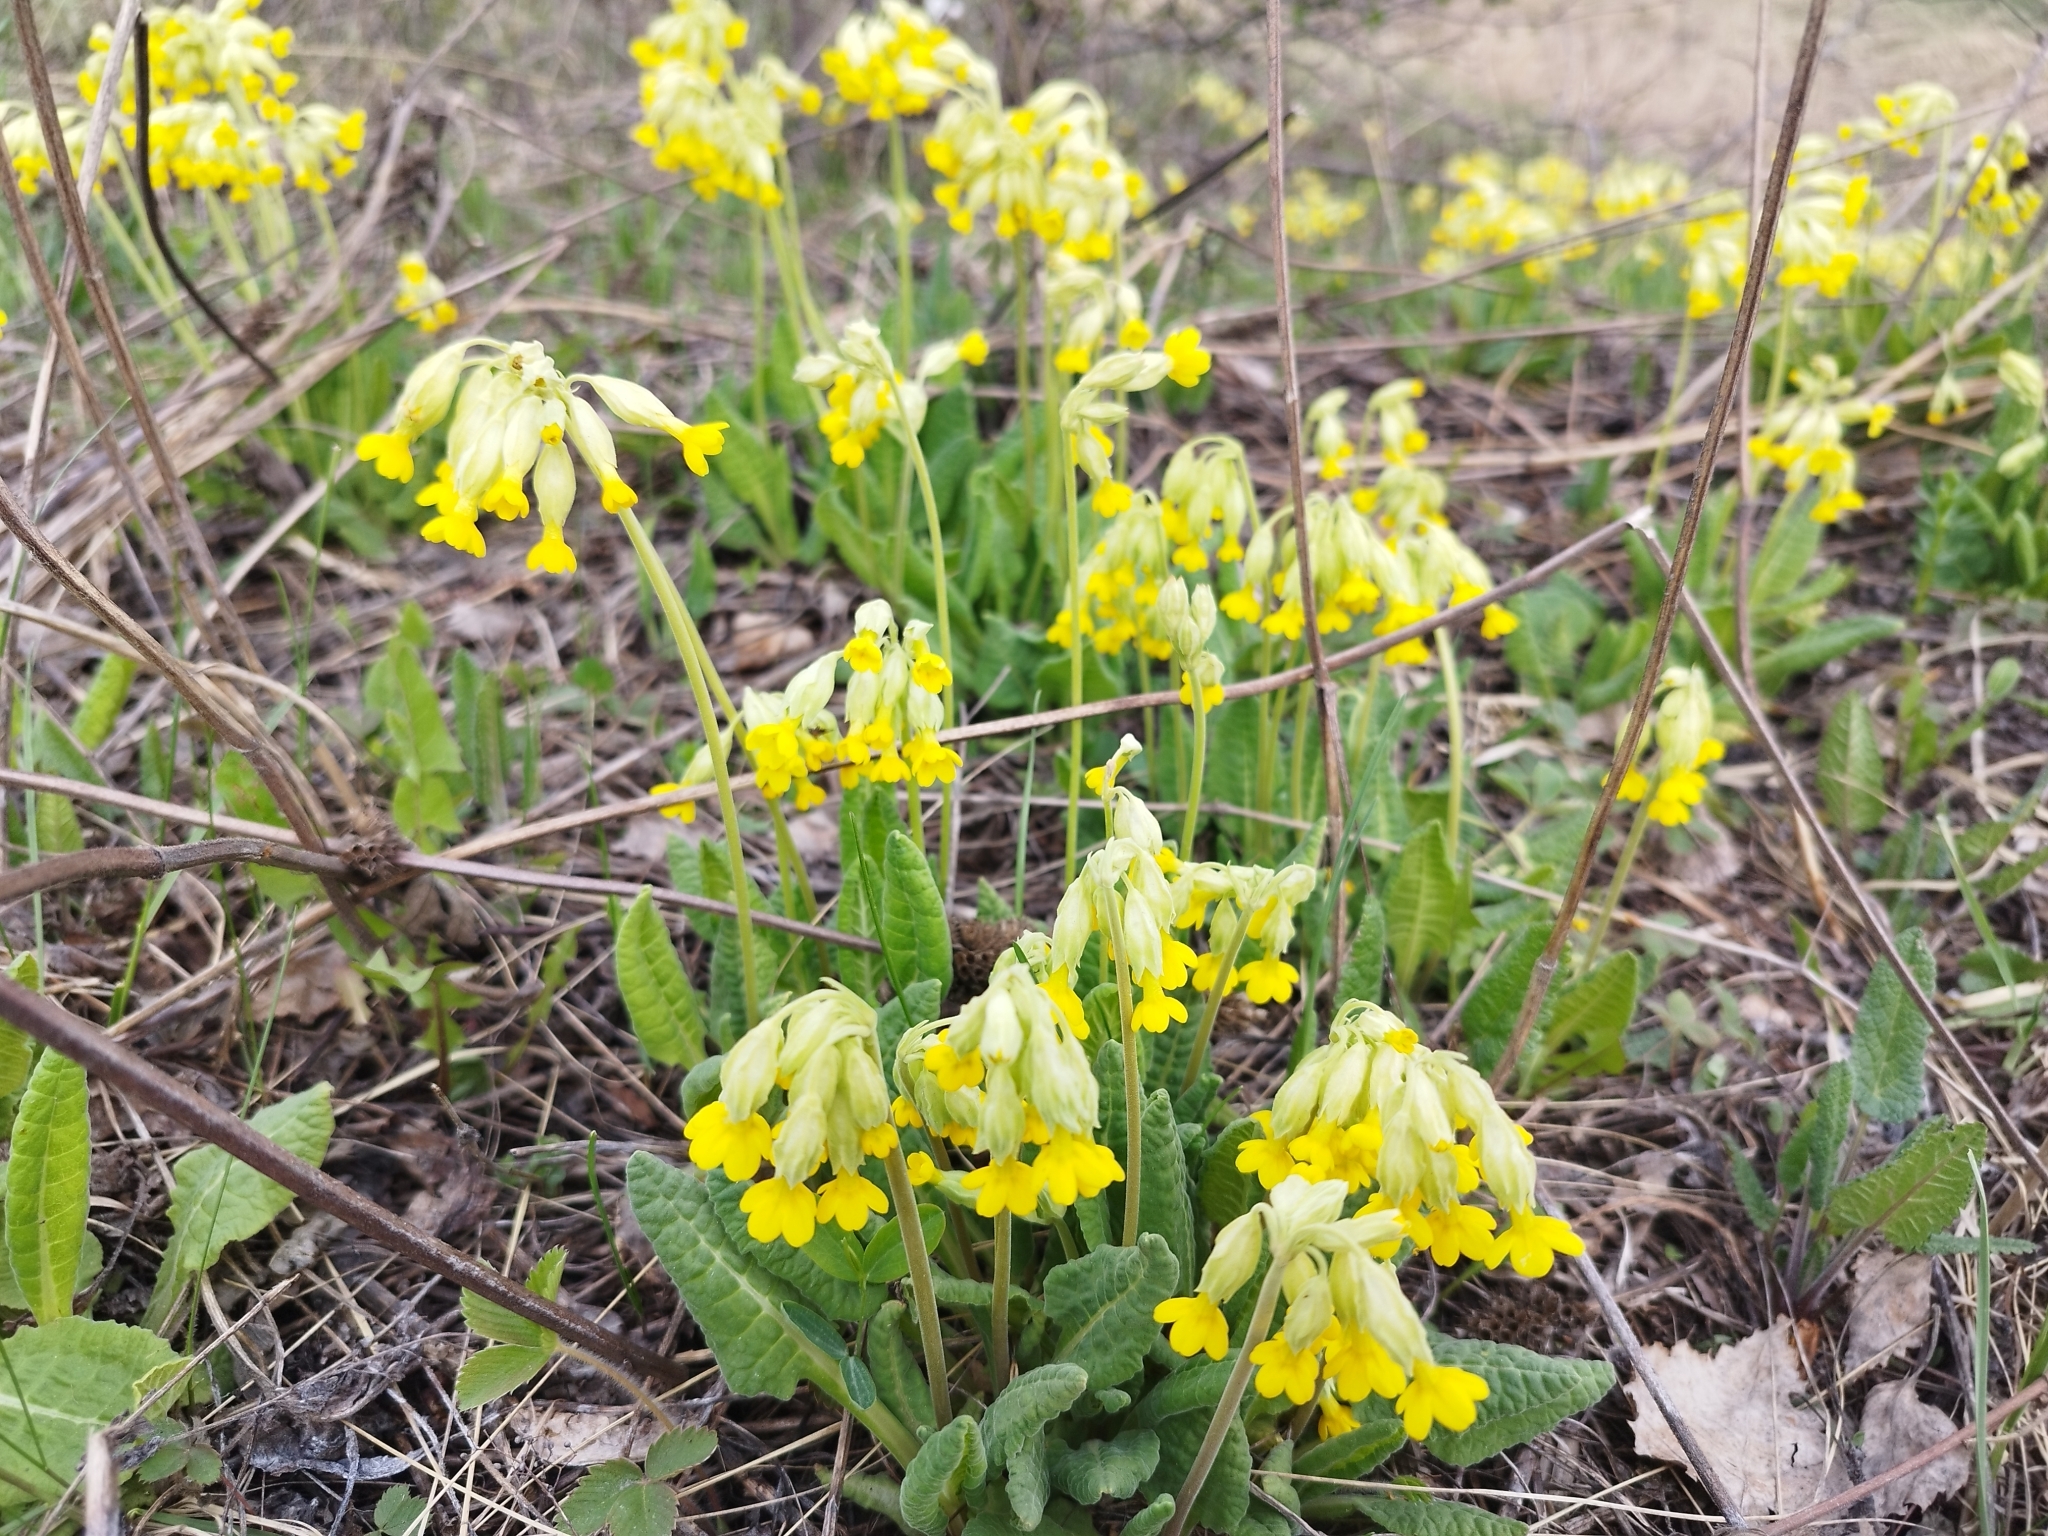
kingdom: Plantae
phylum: Tracheophyta
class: Magnoliopsida
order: Ericales
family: Primulaceae
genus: Primula
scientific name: Primula veris
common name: Cowslip
